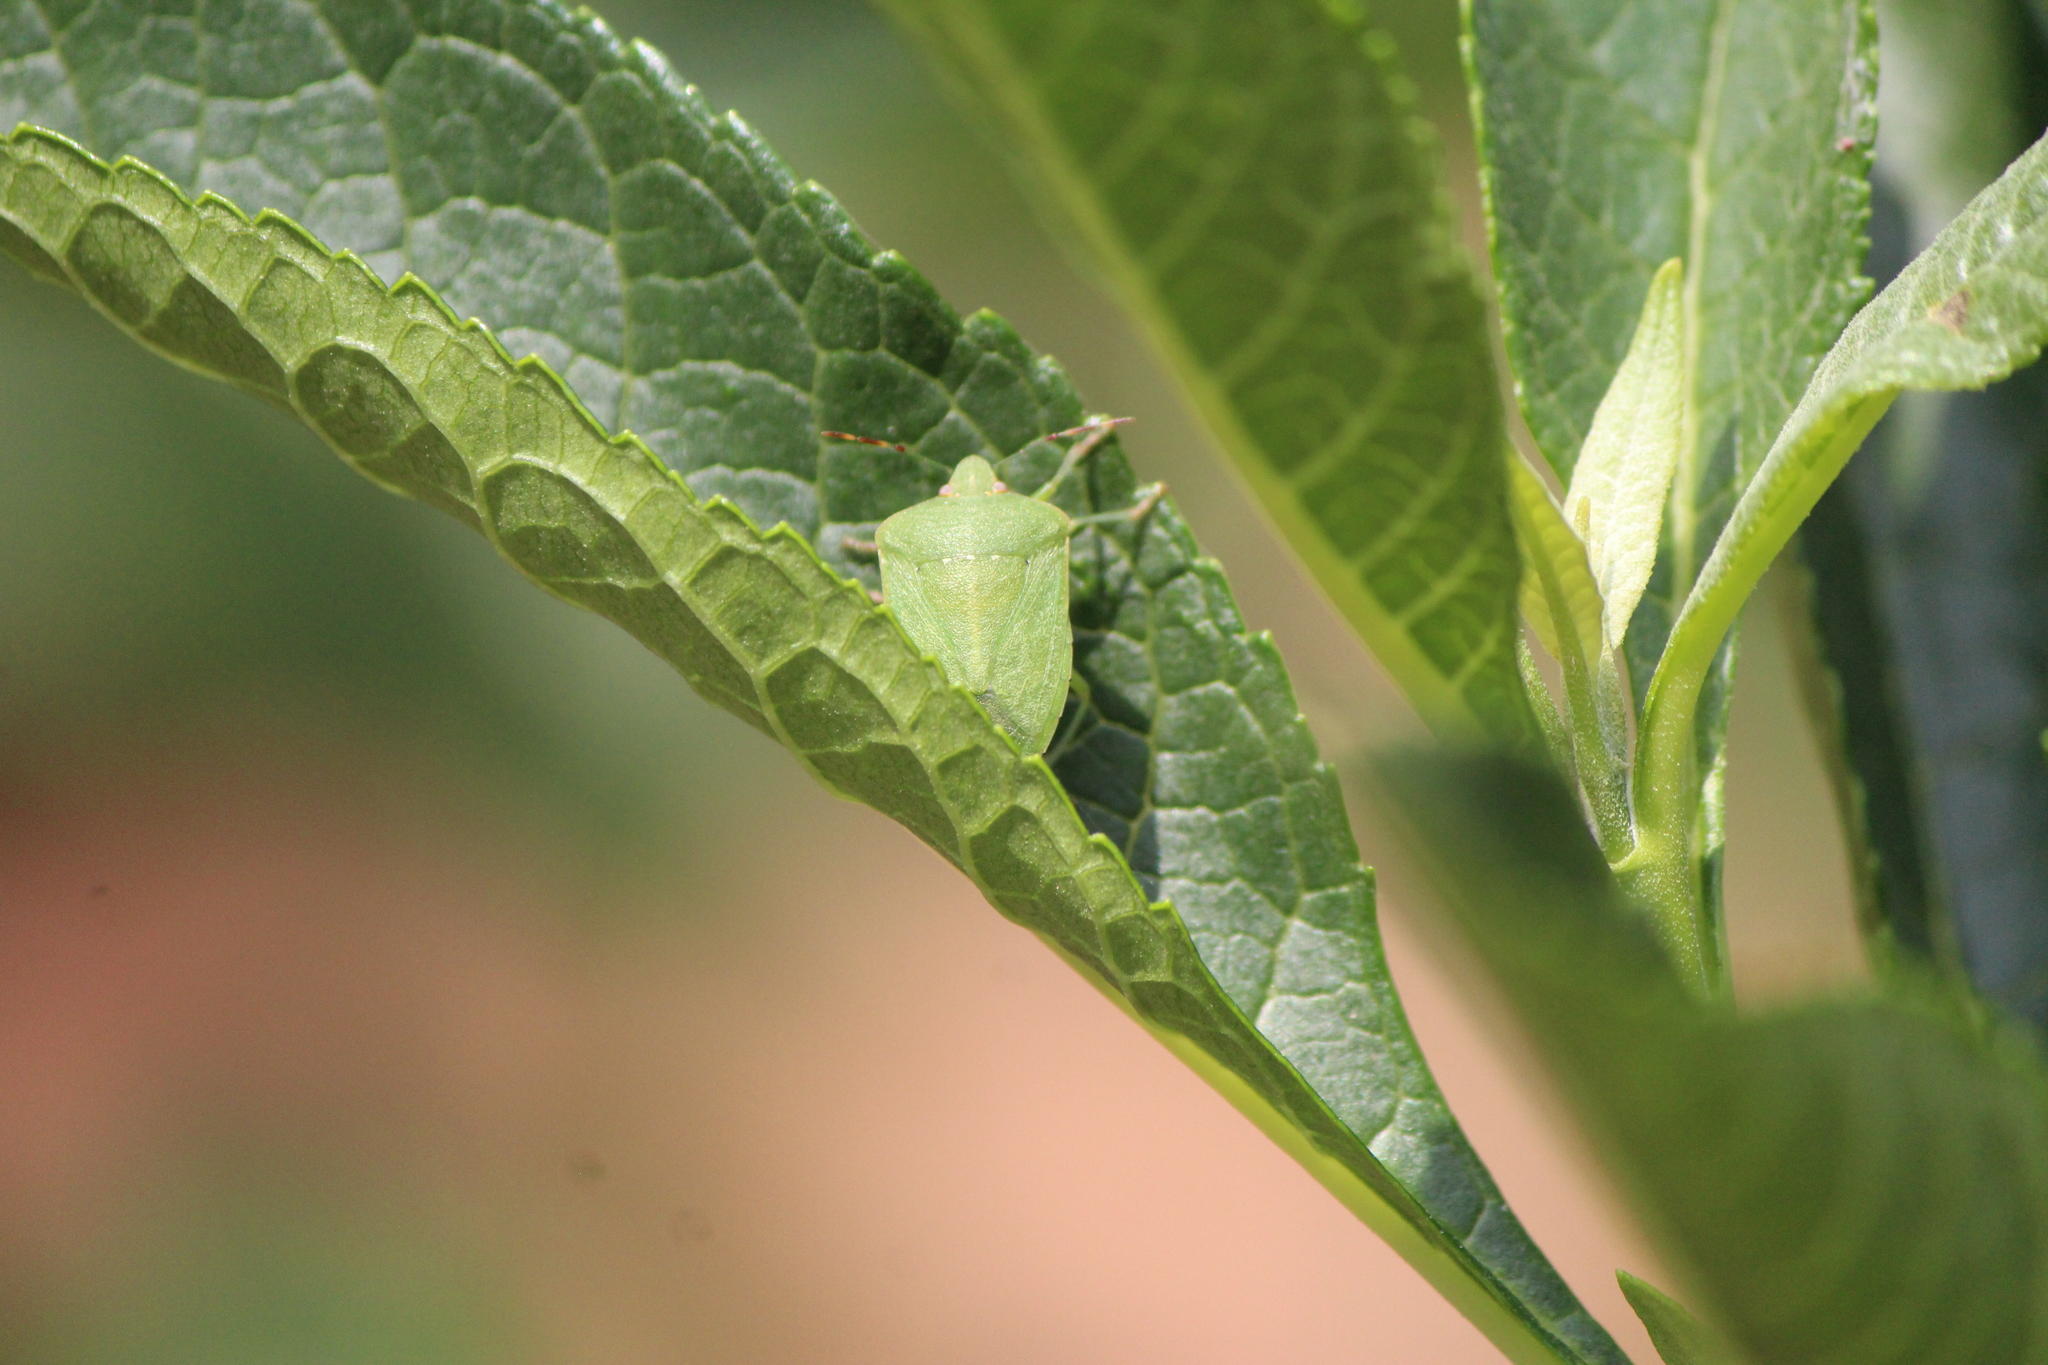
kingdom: Animalia
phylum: Arthropoda
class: Insecta
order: Hemiptera
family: Pentatomidae
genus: Nezara
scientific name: Nezara viridula
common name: Southern green stink bug
